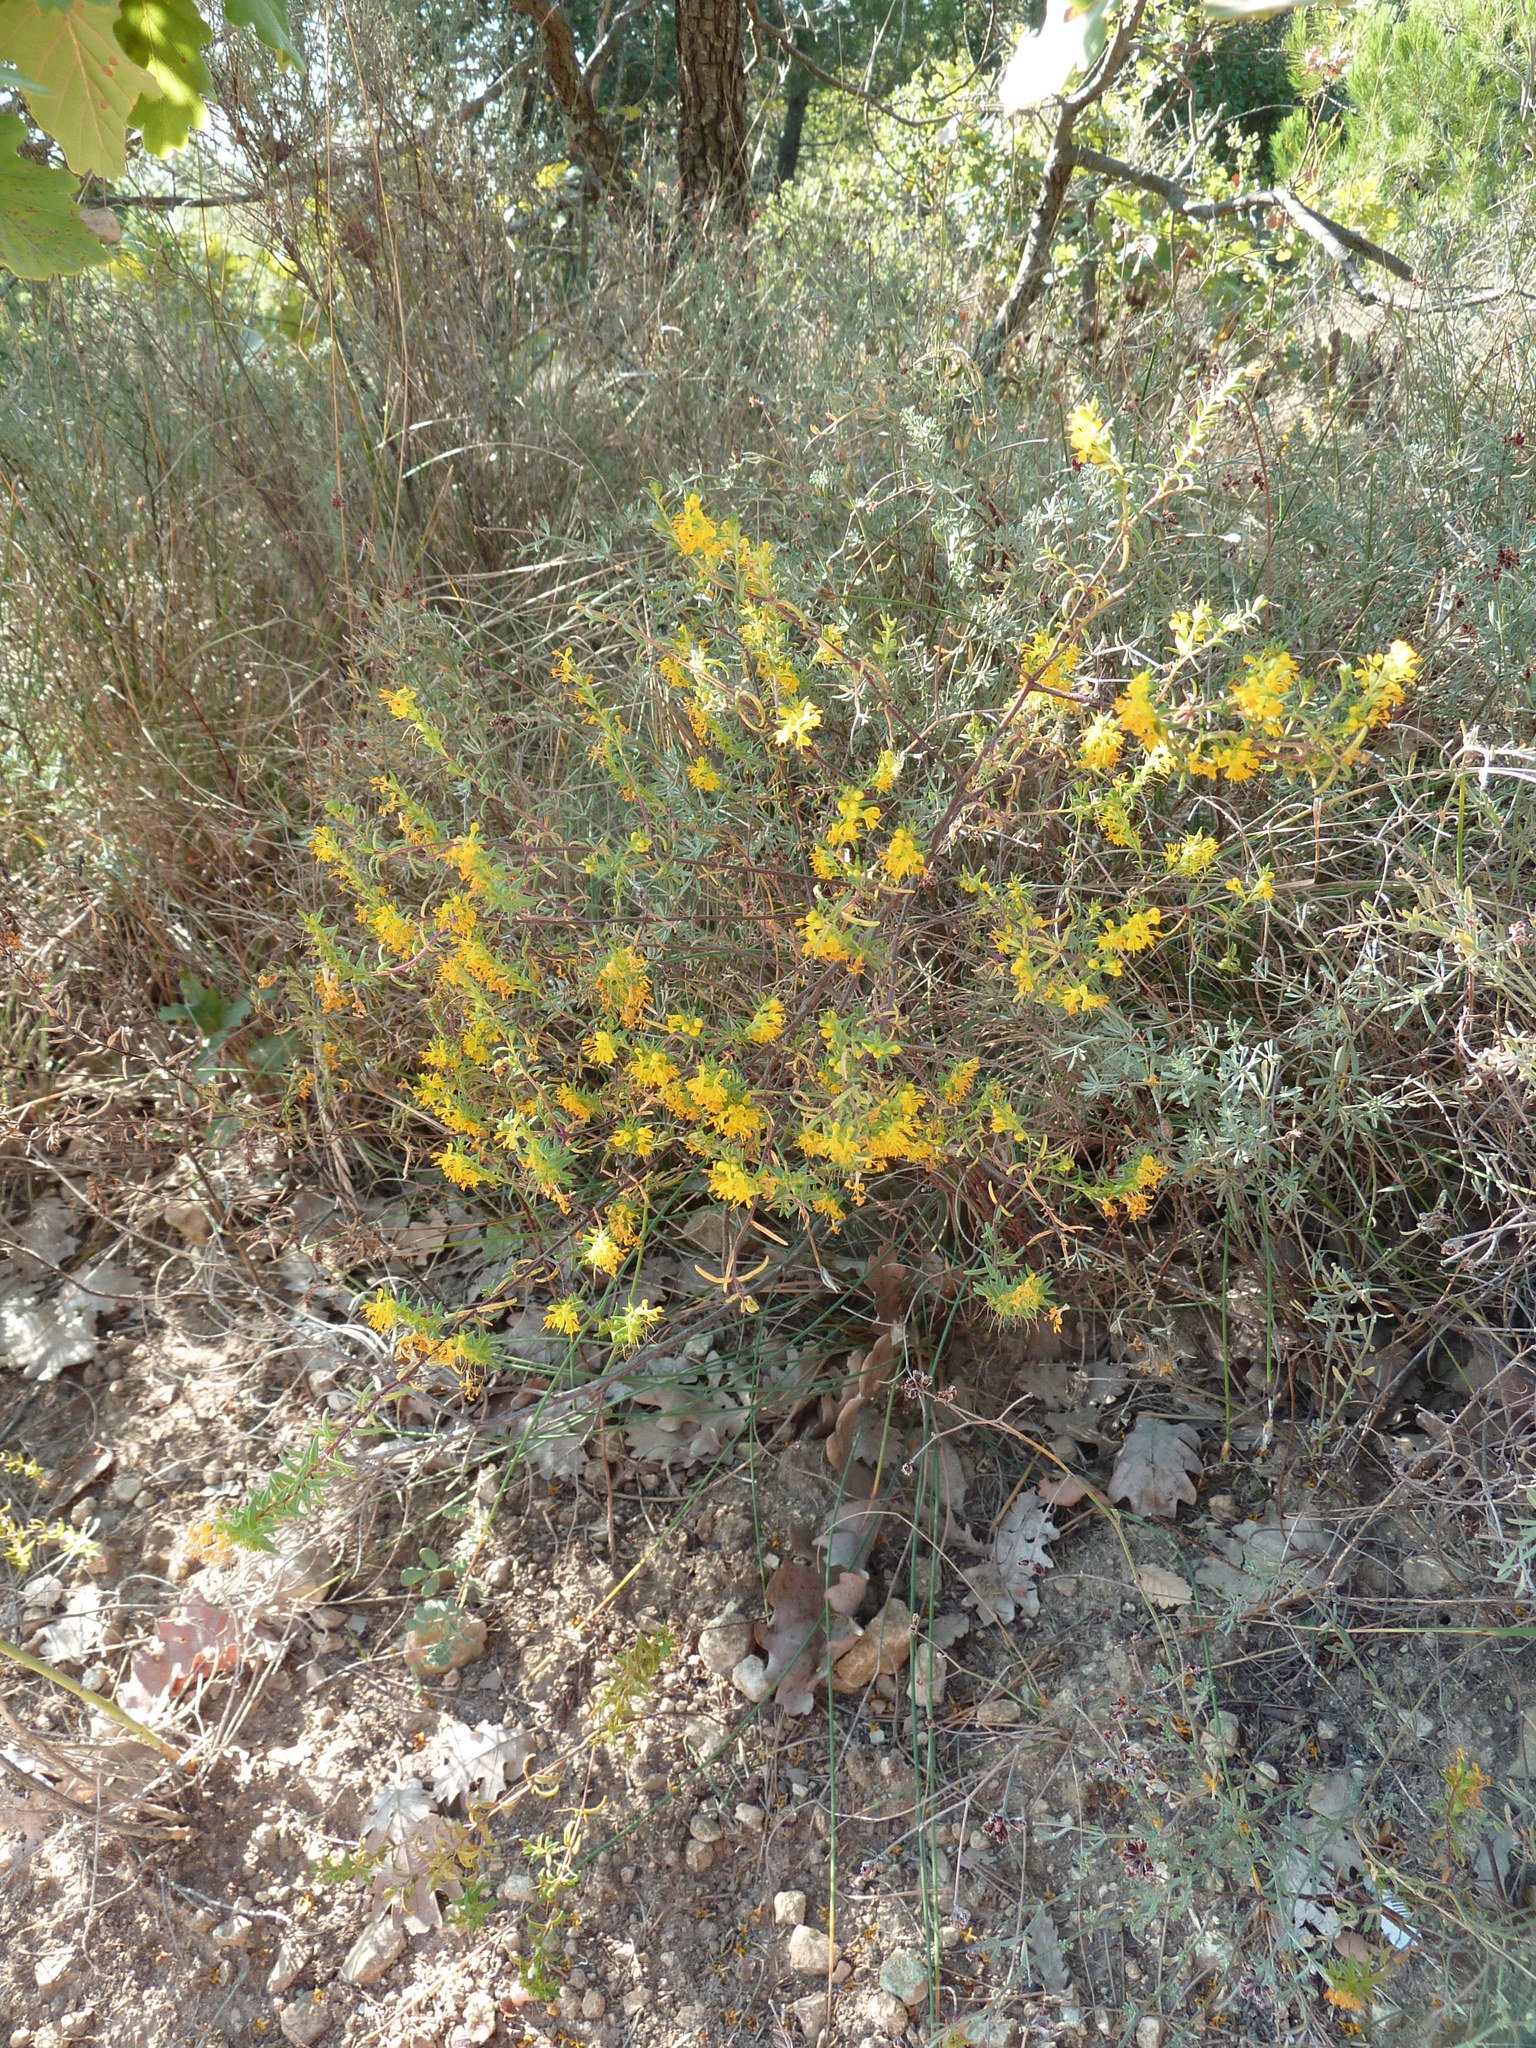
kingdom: Plantae
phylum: Tracheophyta
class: Magnoliopsida
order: Lamiales
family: Orobanchaceae
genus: Odontites
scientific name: Odontites luteus
